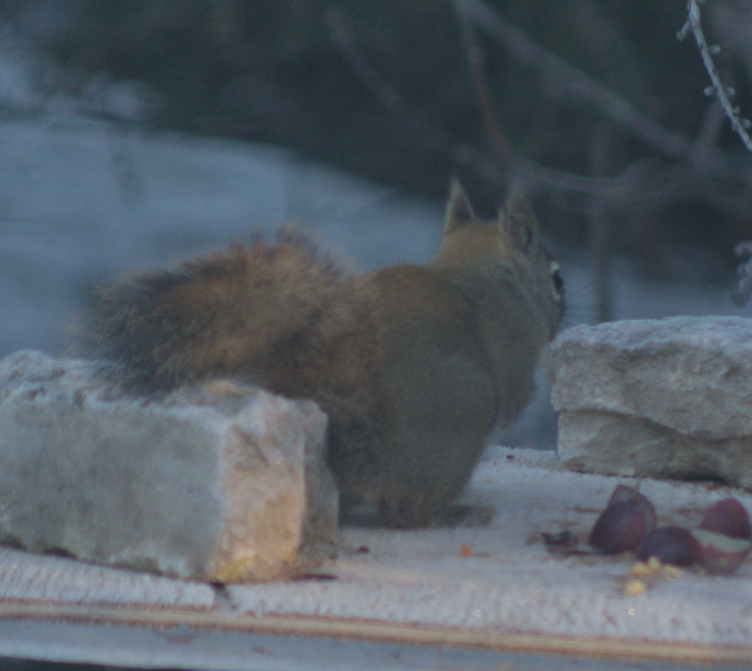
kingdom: Animalia
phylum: Chordata
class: Mammalia
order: Rodentia
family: Sciuridae
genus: Tamiasciurus
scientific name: Tamiasciurus hudsonicus
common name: Red squirrel
